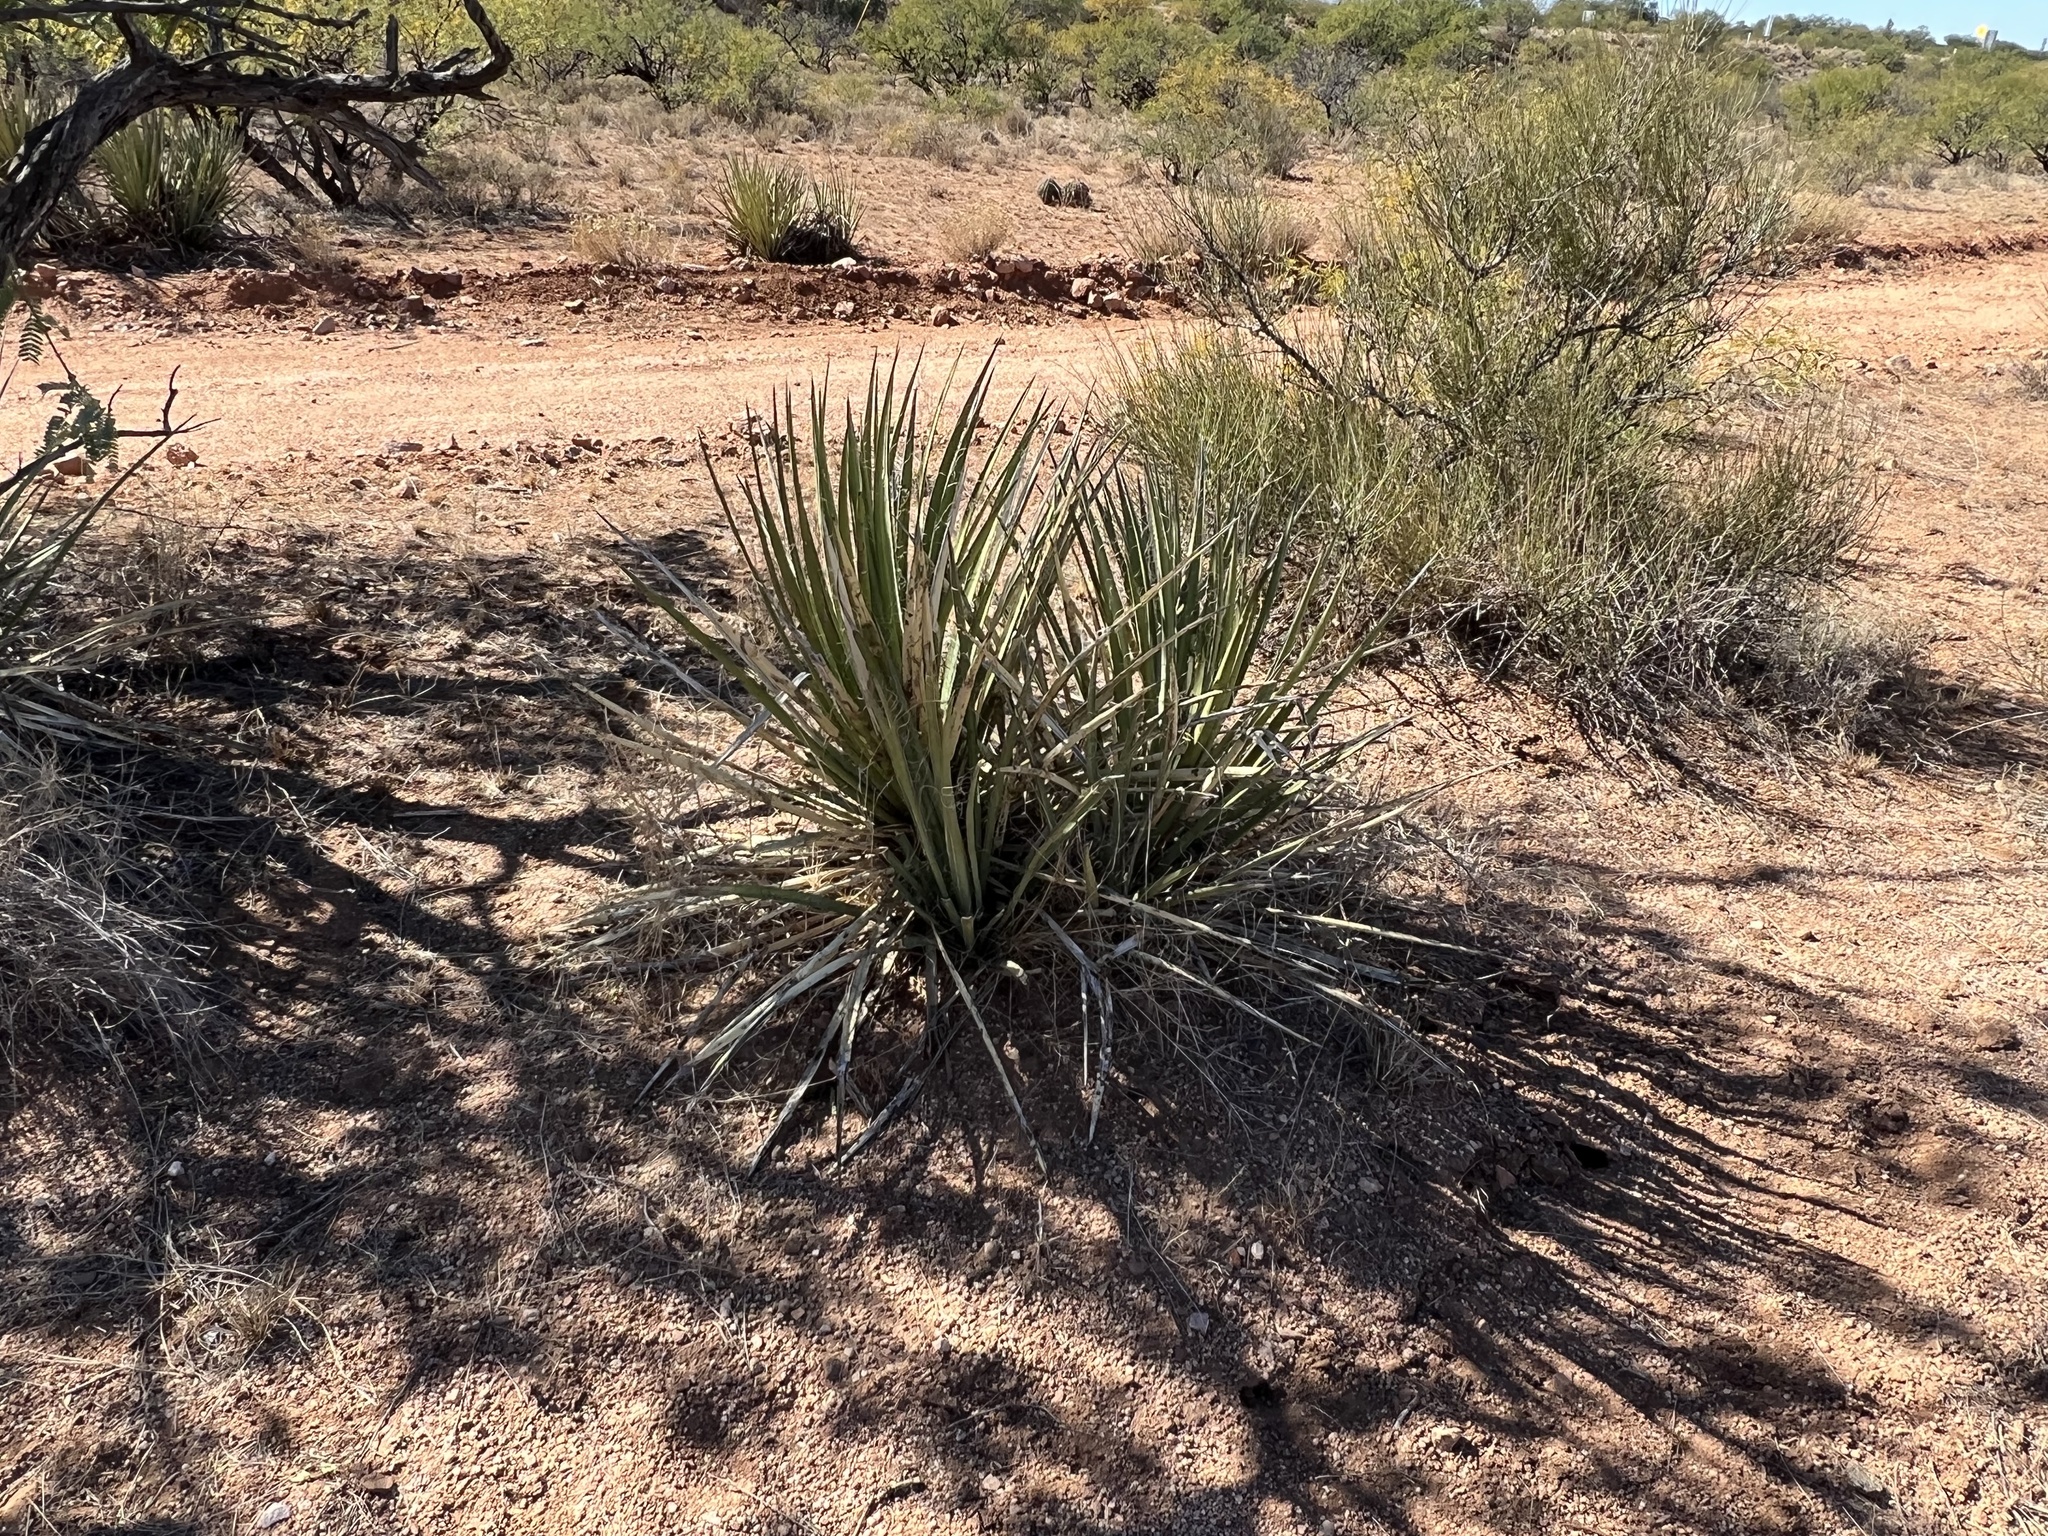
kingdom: Plantae
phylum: Tracheophyta
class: Liliopsida
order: Asparagales
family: Asparagaceae
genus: Yucca
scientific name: Yucca baccata
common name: Banana yucca
